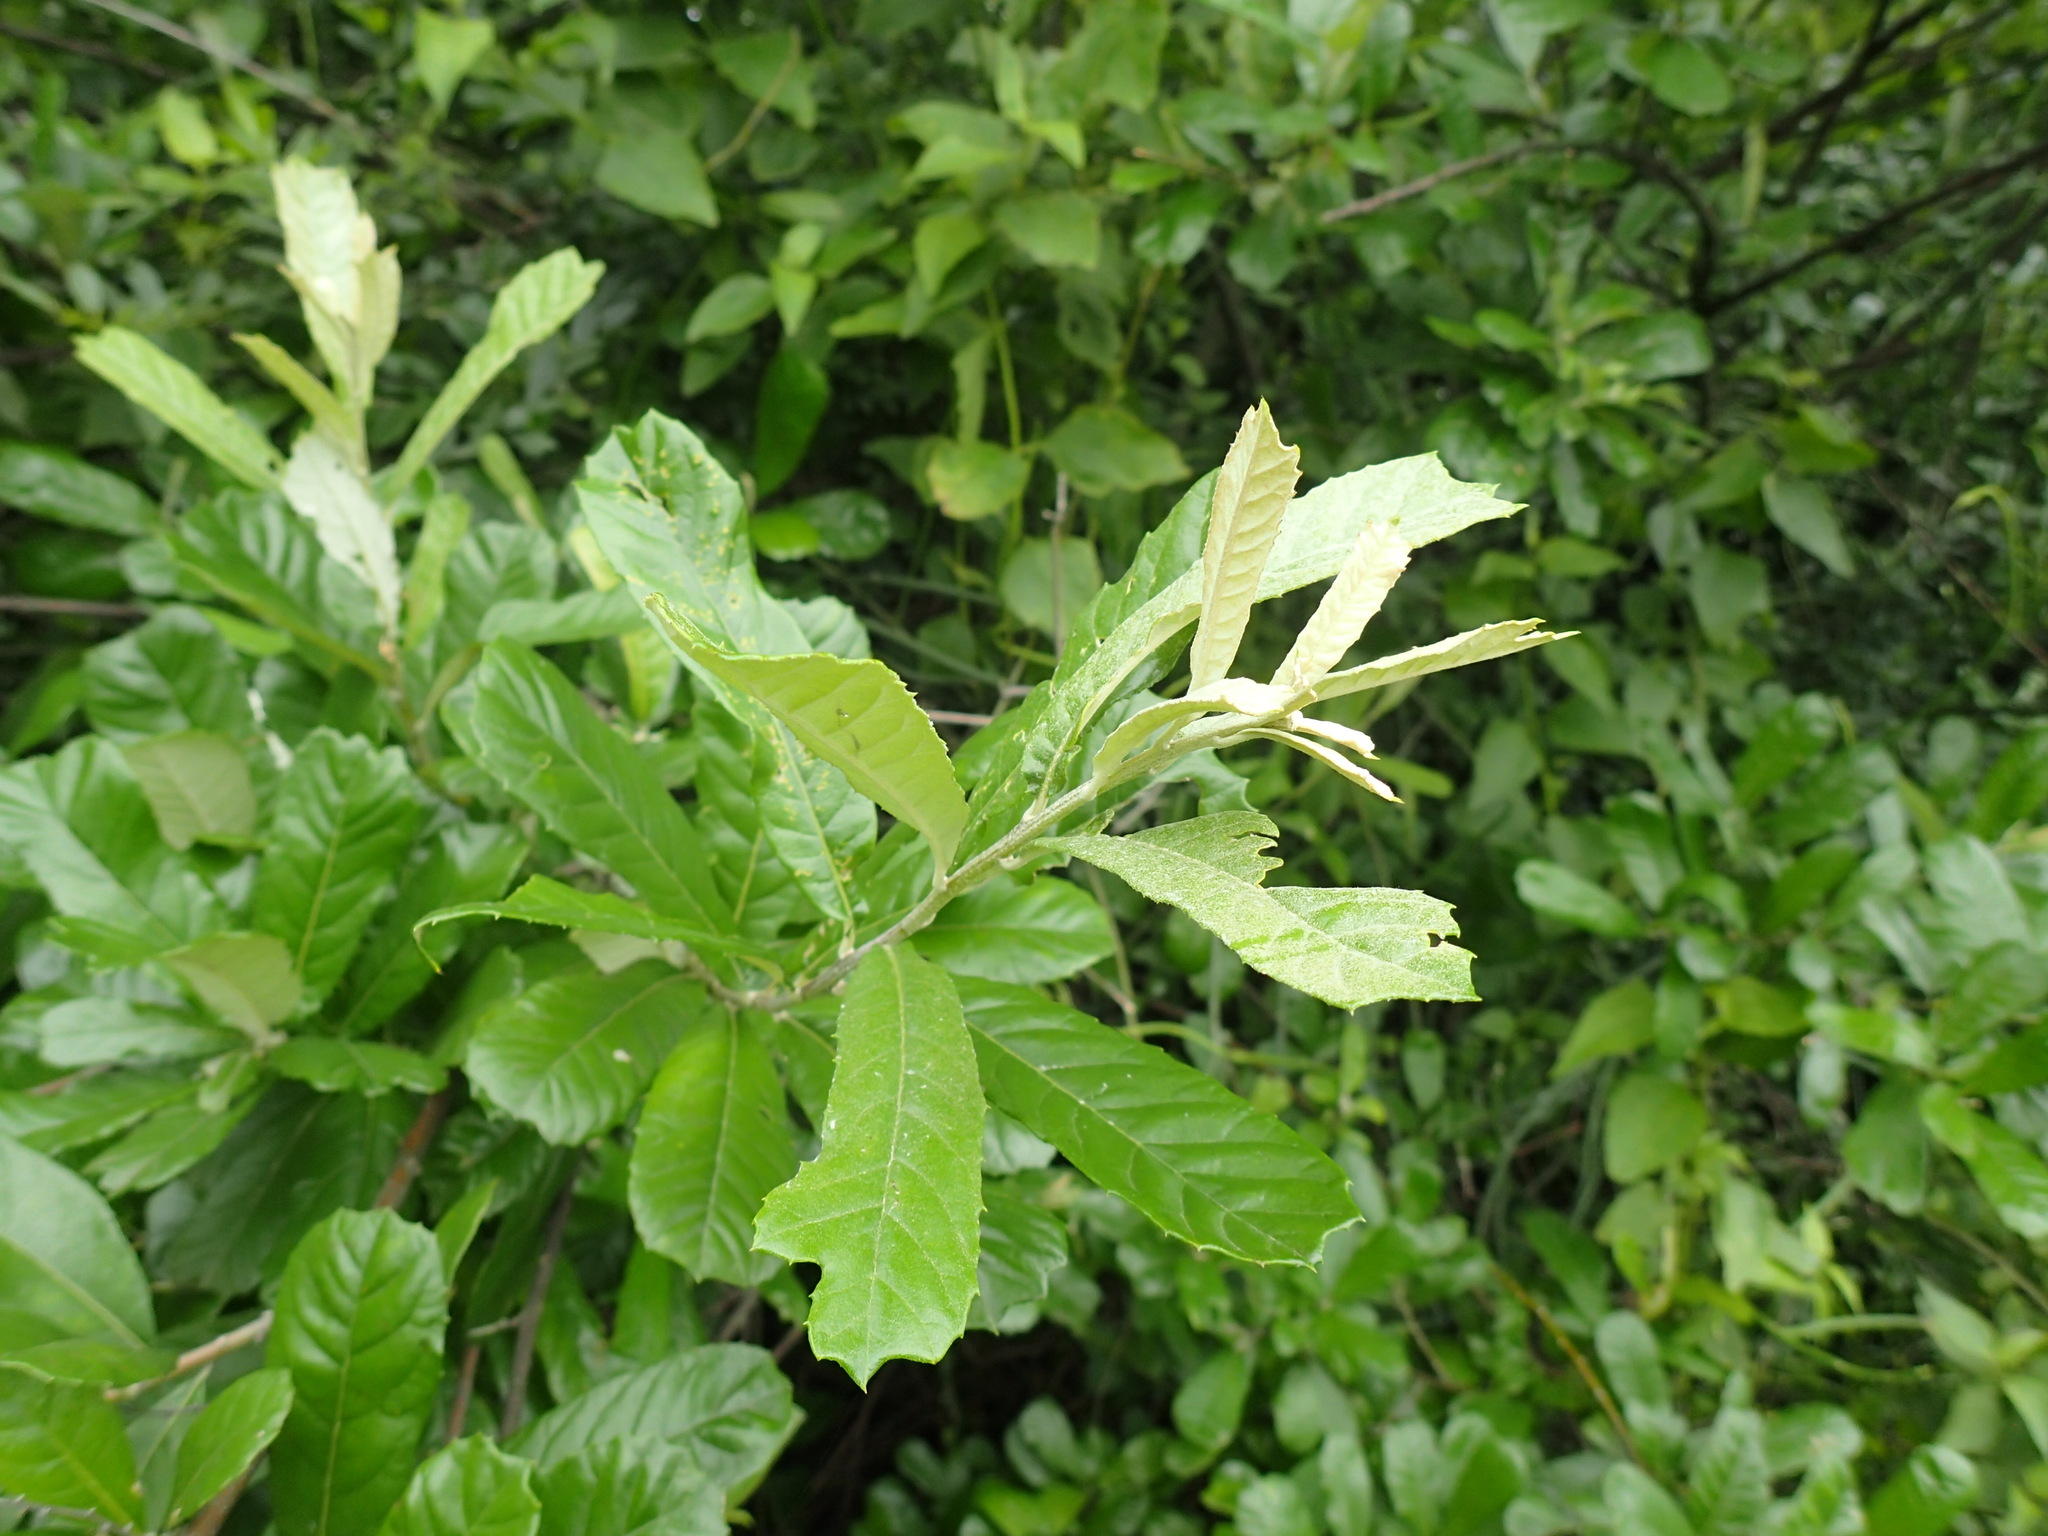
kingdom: Plantae
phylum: Tracheophyta
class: Magnoliopsida
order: Asterales
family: Asteraceae
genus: Brachylaena
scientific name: Brachylaena elliptica
